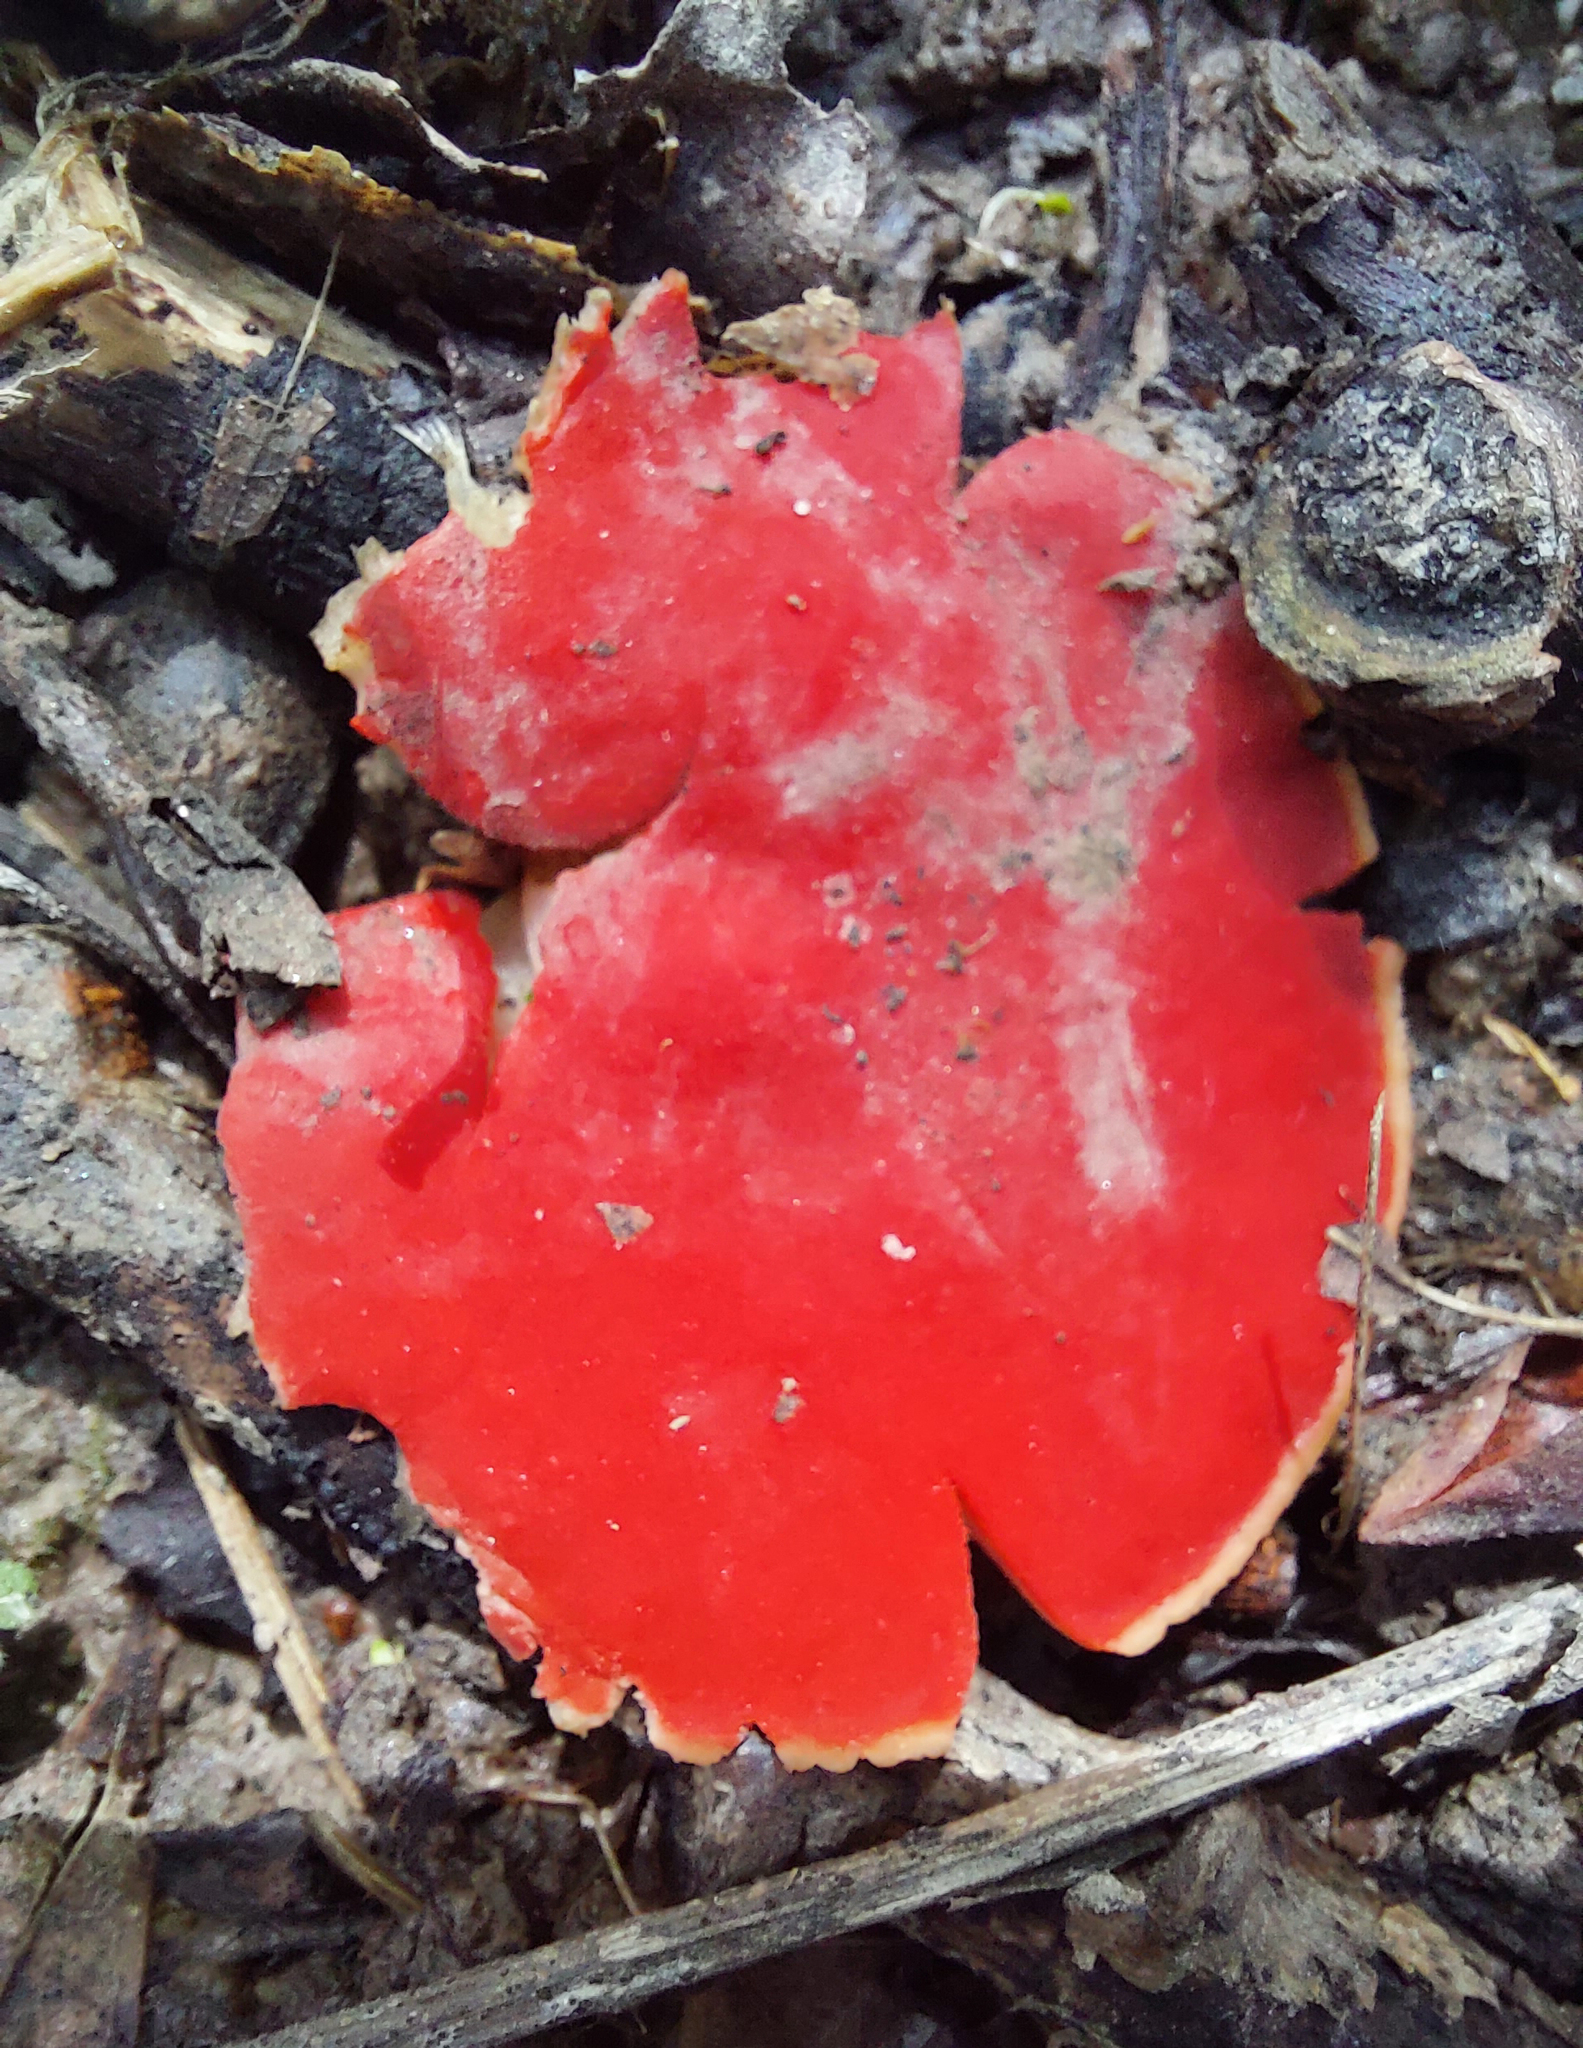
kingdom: Fungi
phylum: Ascomycota
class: Pezizomycetes
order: Pezizales
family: Sarcoscyphaceae
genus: Sarcoscypha
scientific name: Sarcoscypha austriaca
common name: Scarlet elfcup
